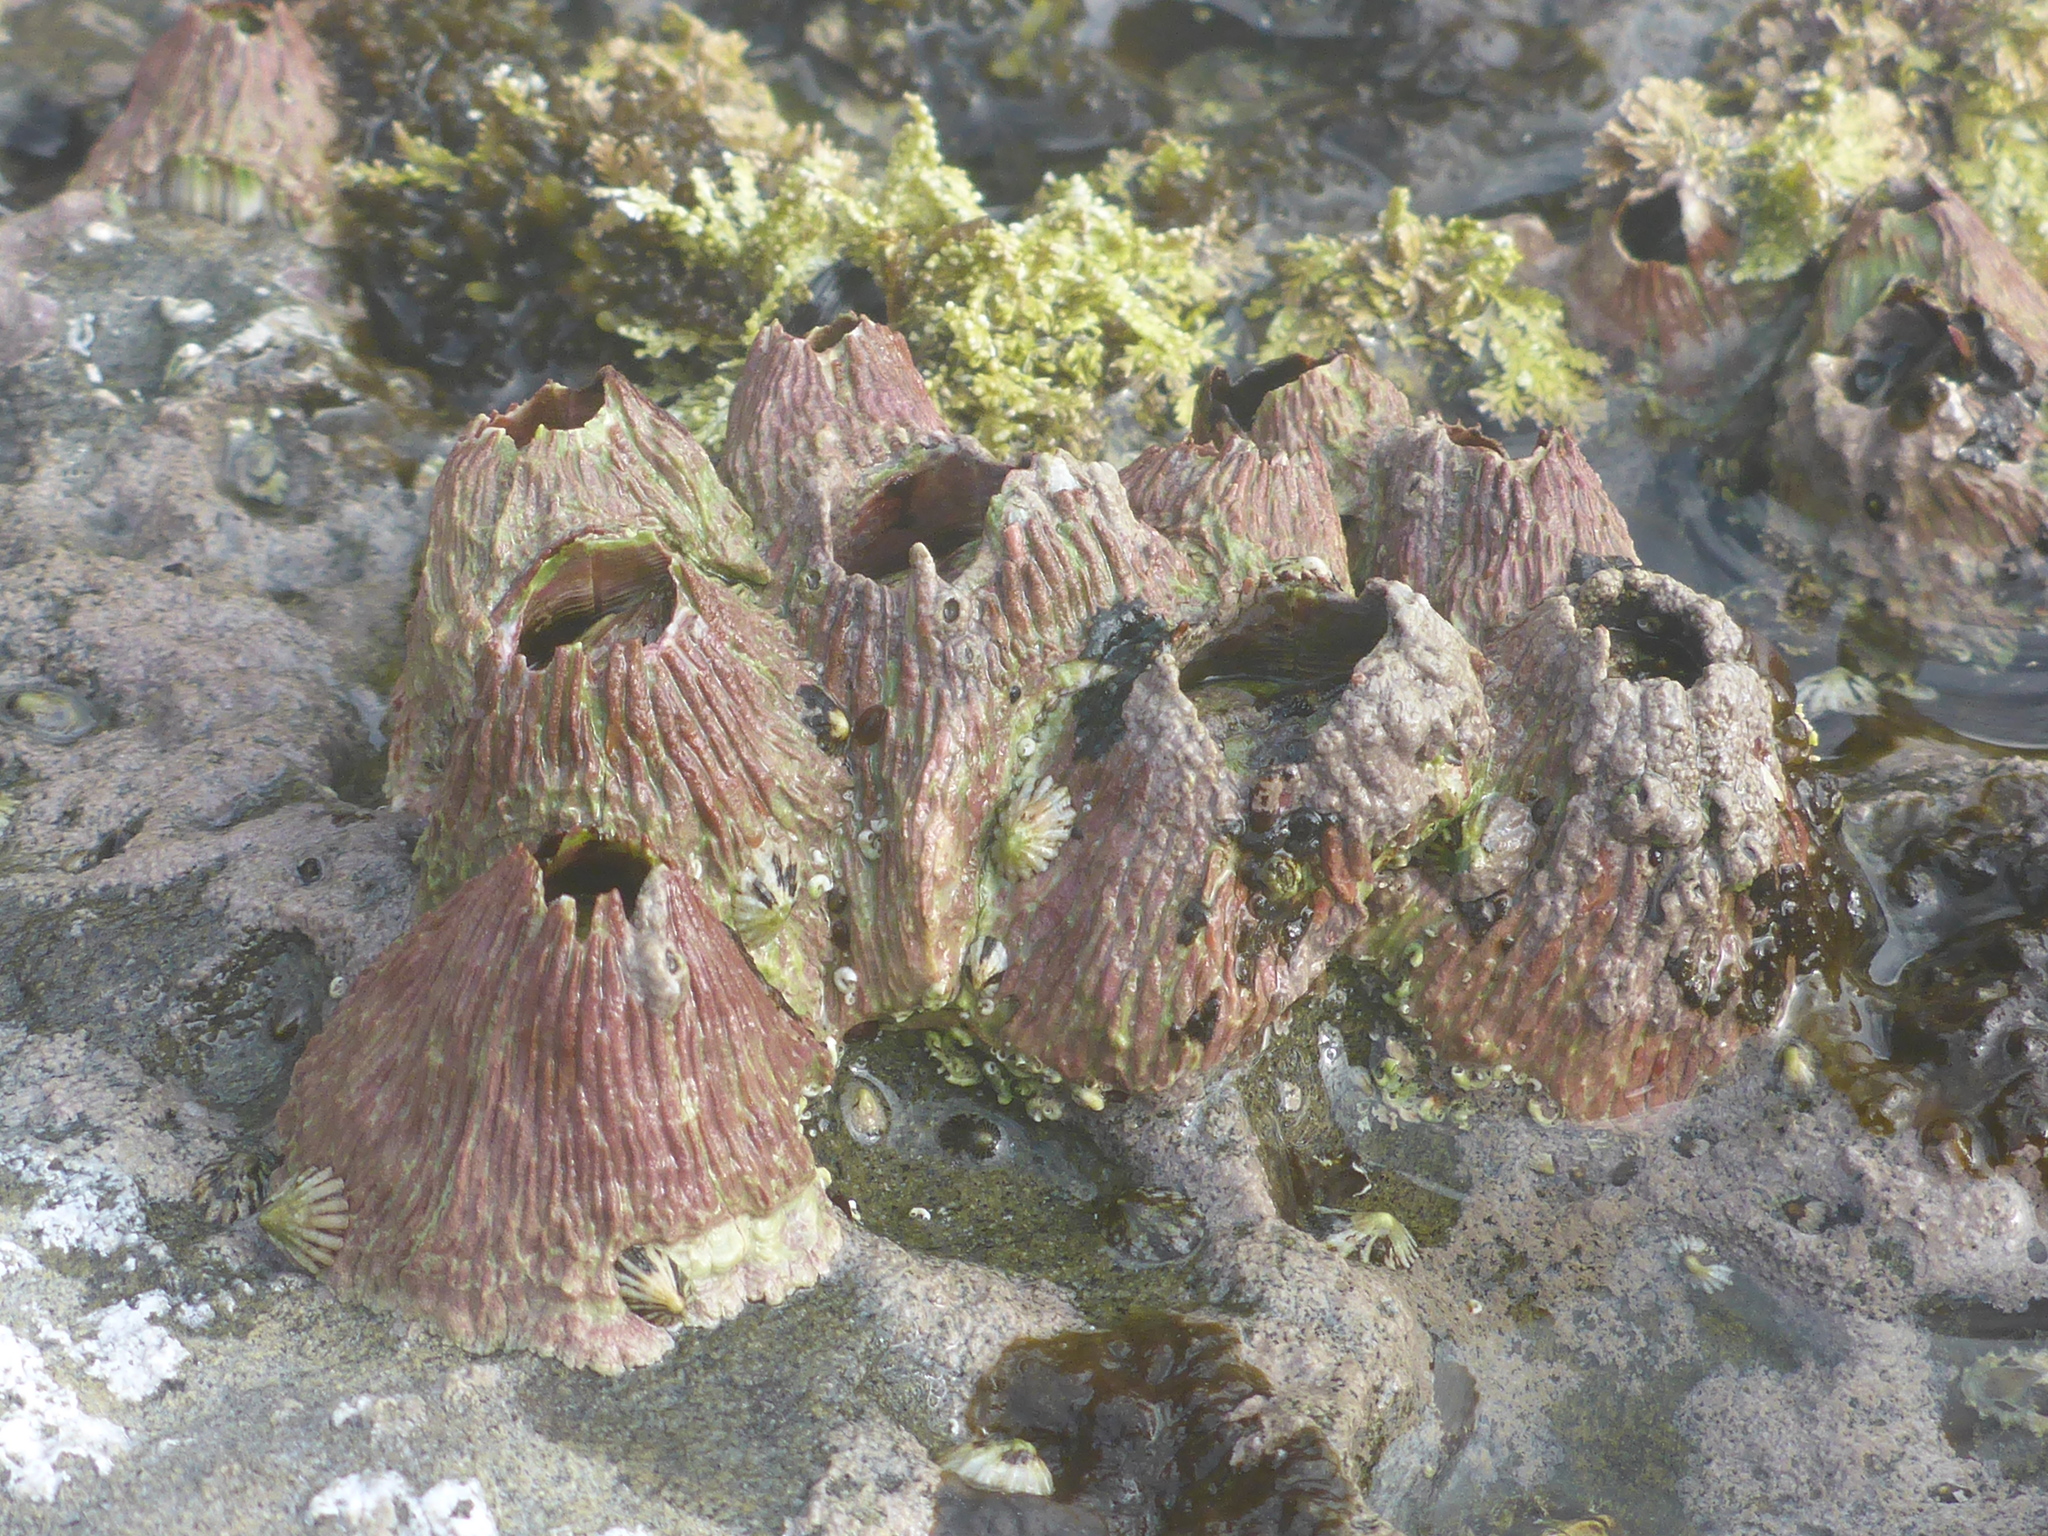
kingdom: Animalia
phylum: Arthropoda
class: Maxillopoda
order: Sessilia
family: Tetraclitidae
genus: Tetraclita
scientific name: Tetraclita rubescens
